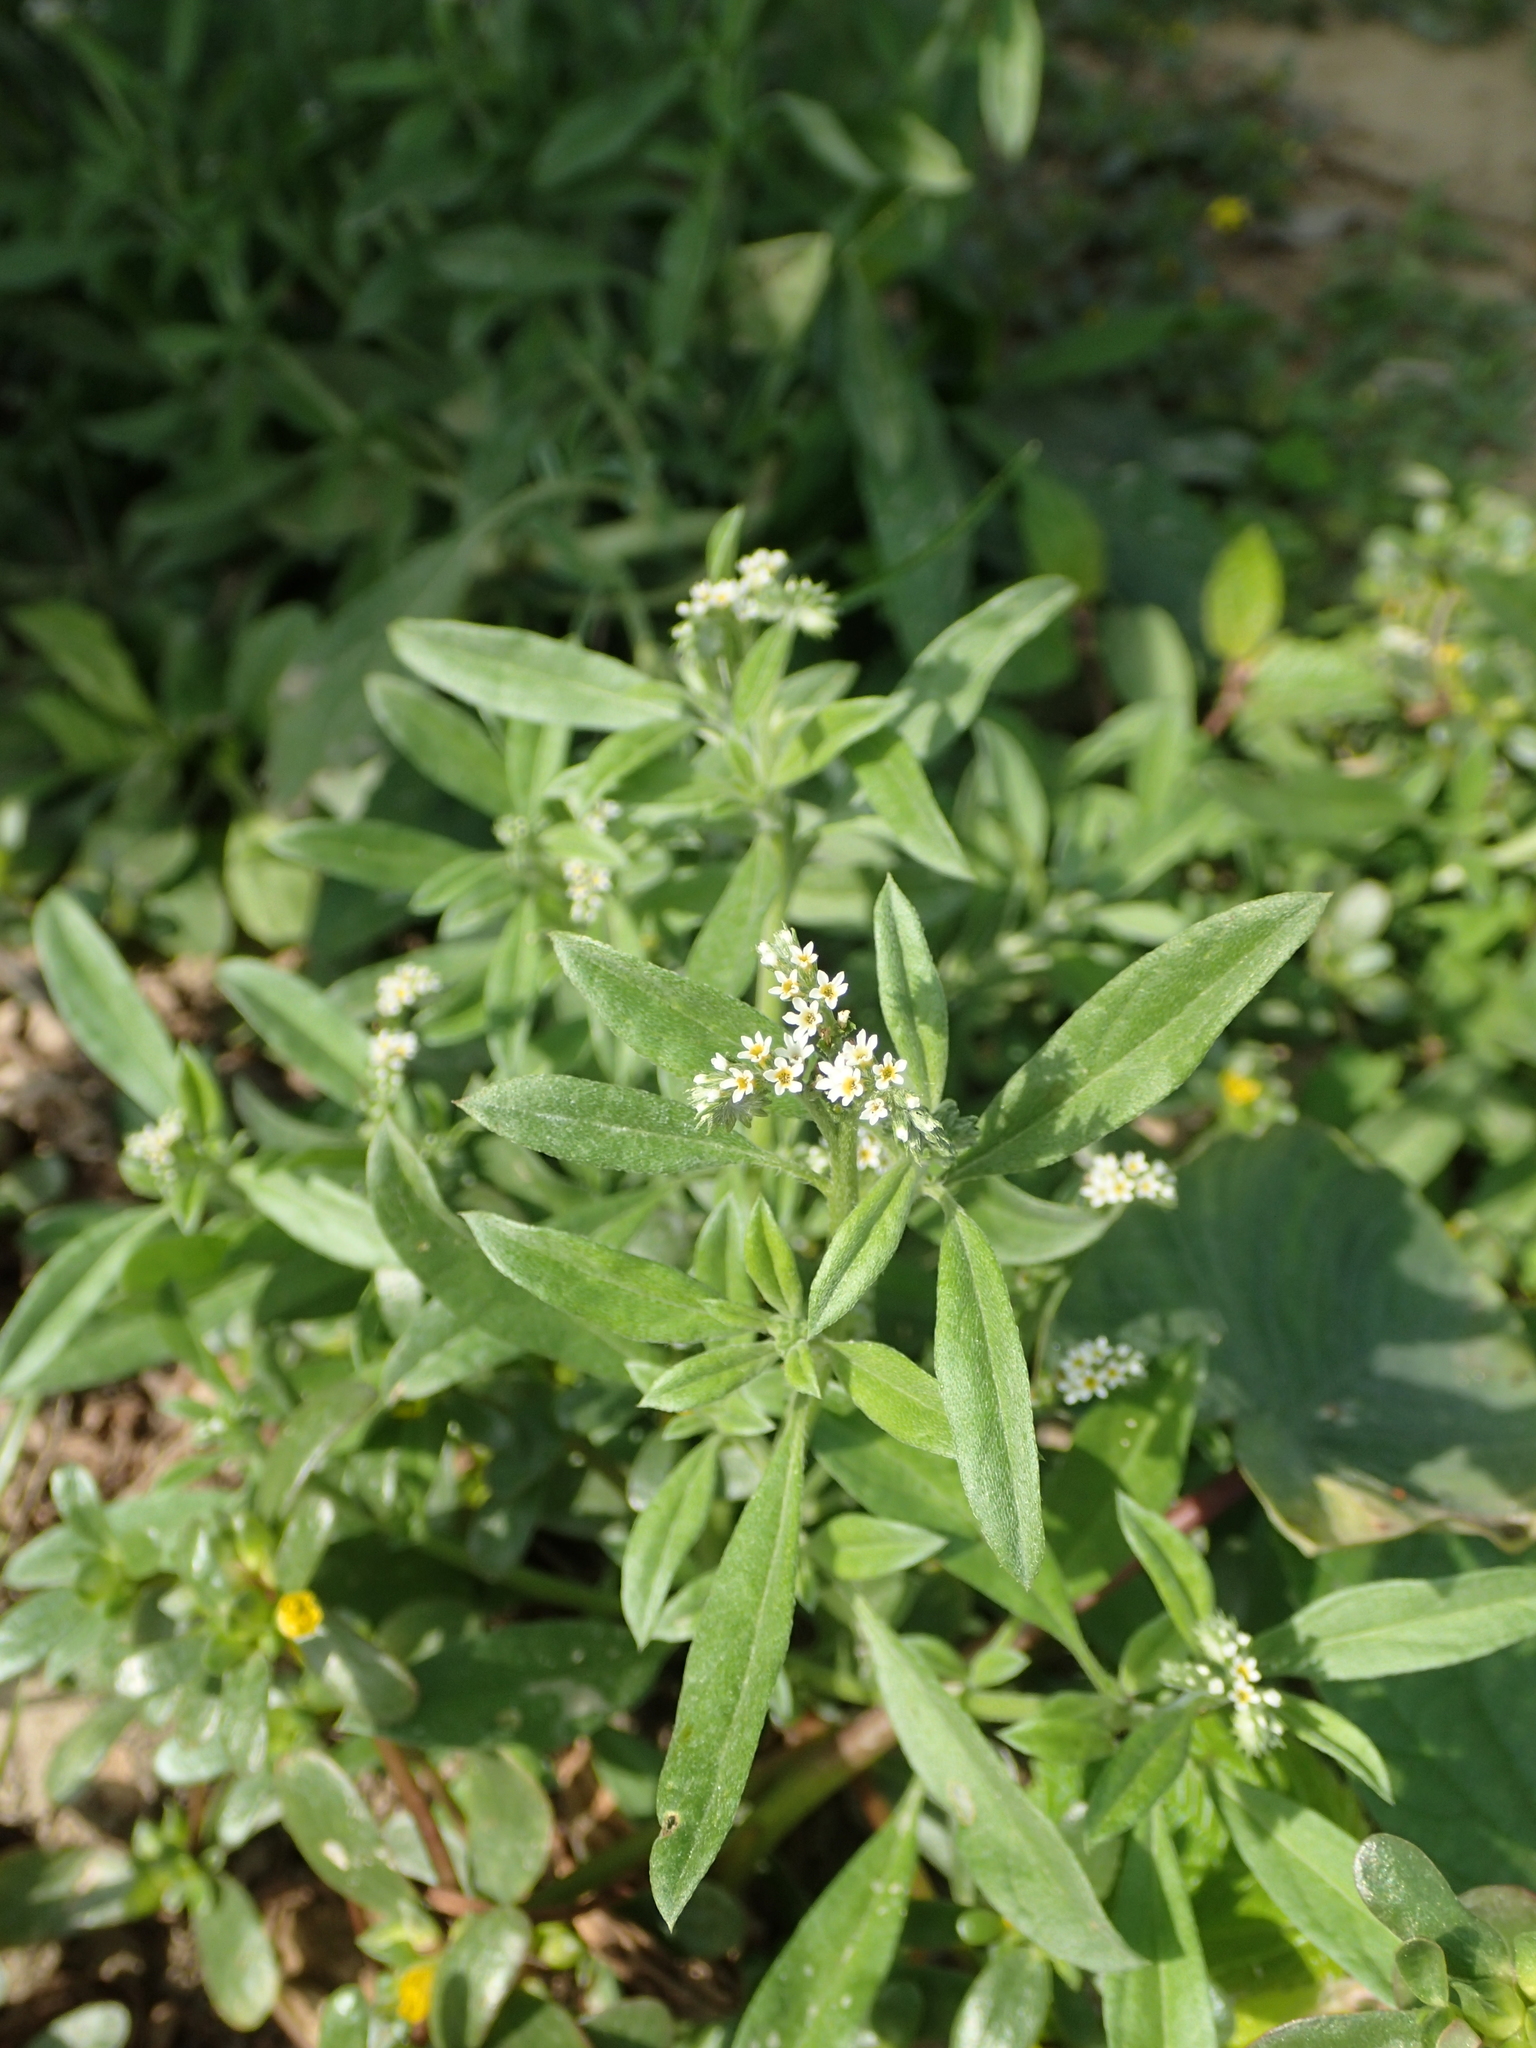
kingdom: Plantae
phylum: Tracheophyta
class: Magnoliopsida
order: Boraginales
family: Heliotropiaceae
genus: Euploca
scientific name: Euploca procumbens
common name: Fourspike heliotrope
